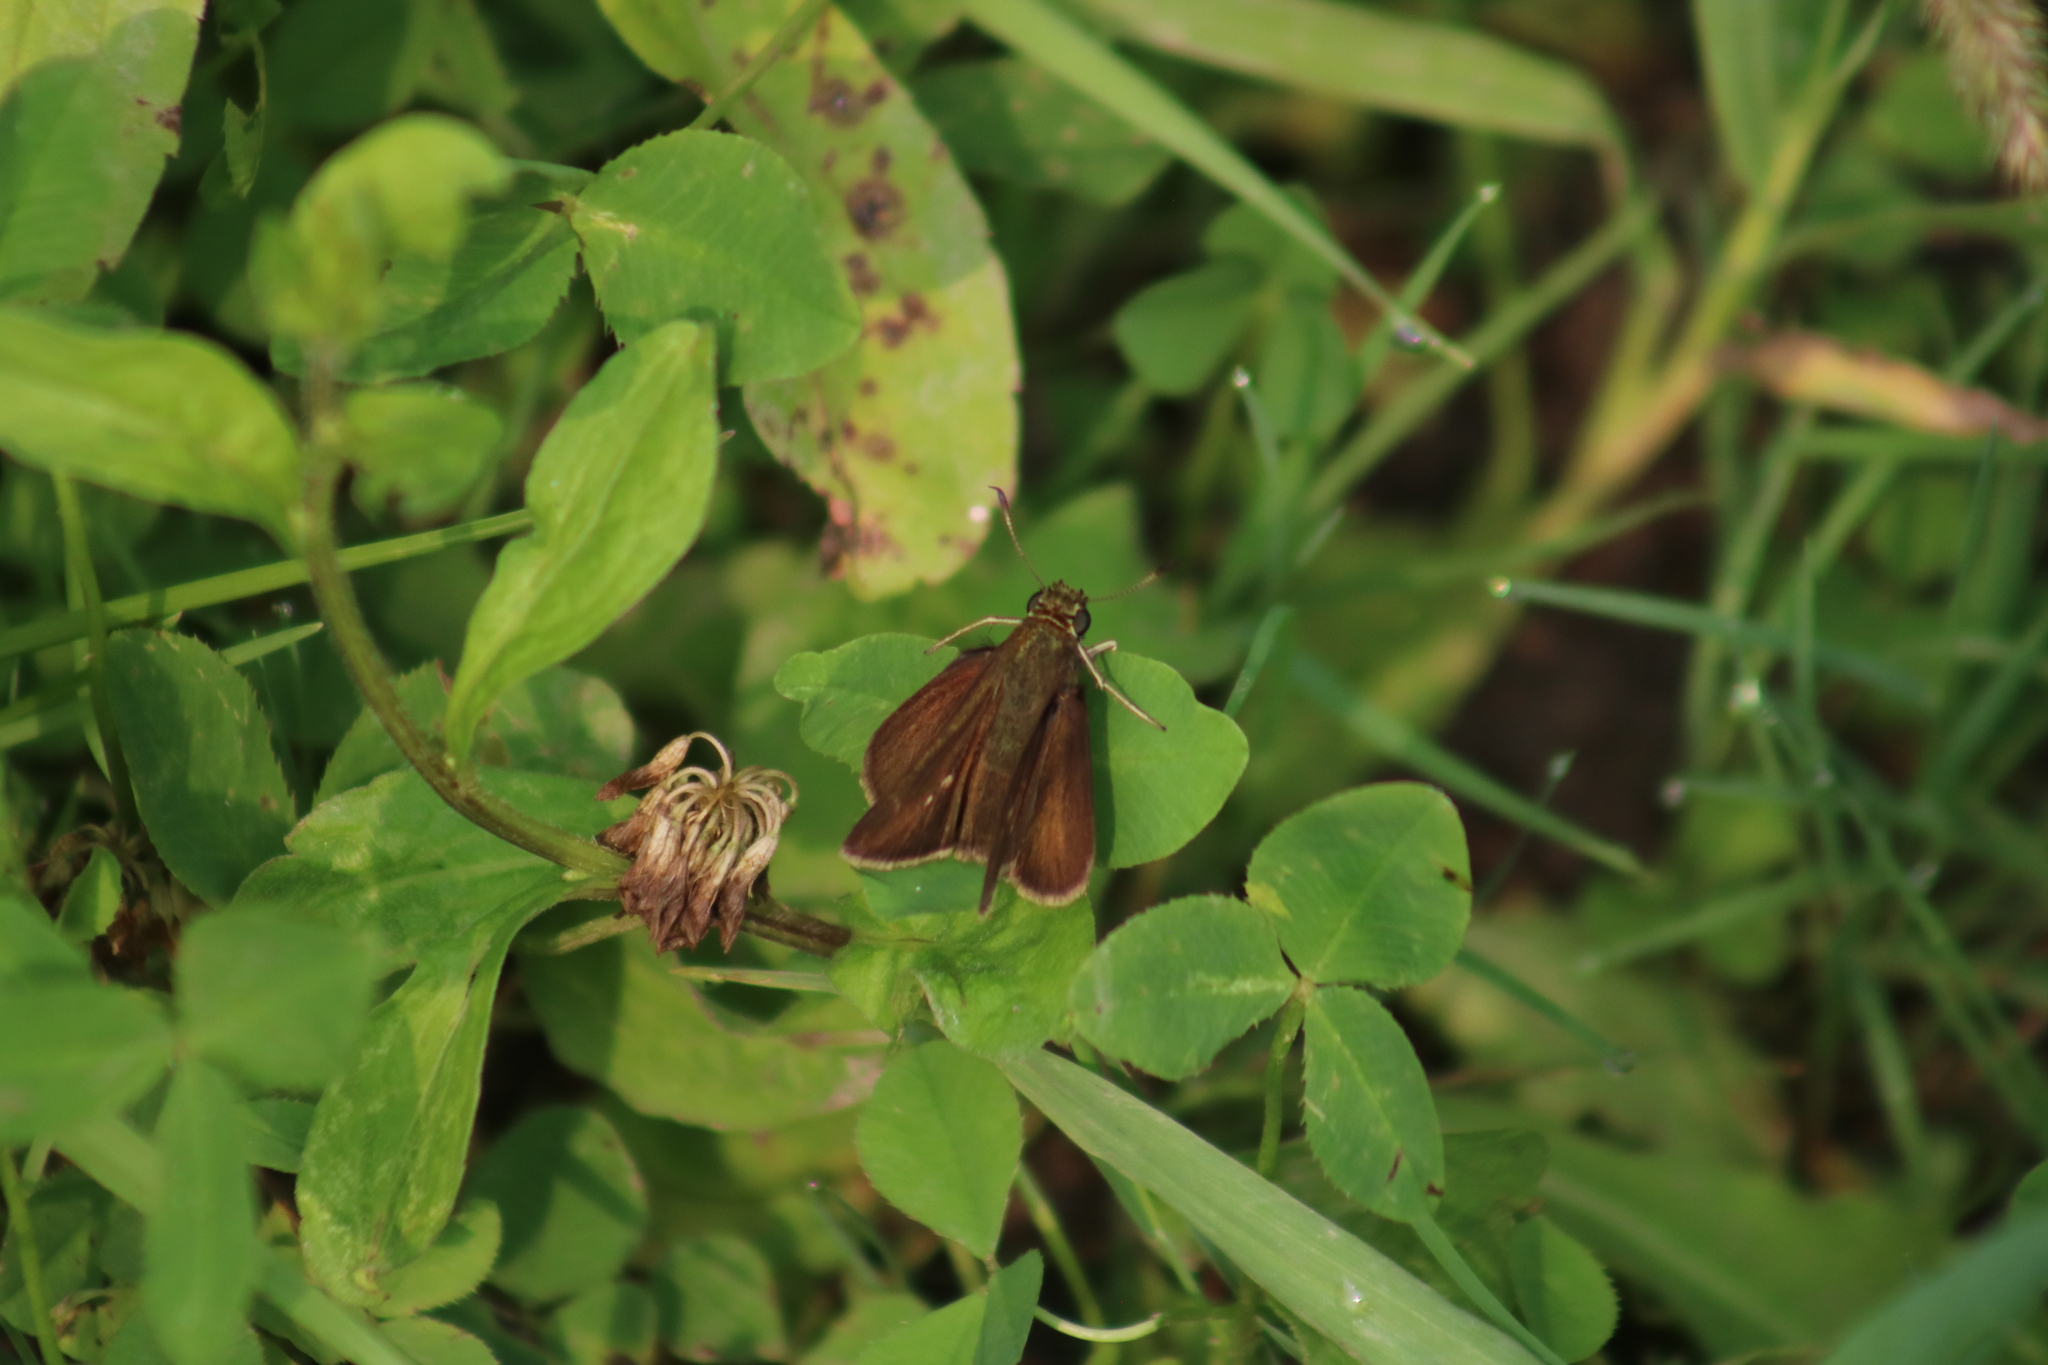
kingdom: Animalia
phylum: Arthropoda
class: Insecta
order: Lepidoptera
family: Hesperiidae
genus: Euphyes
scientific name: Euphyes vestris
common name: Dun skipper
